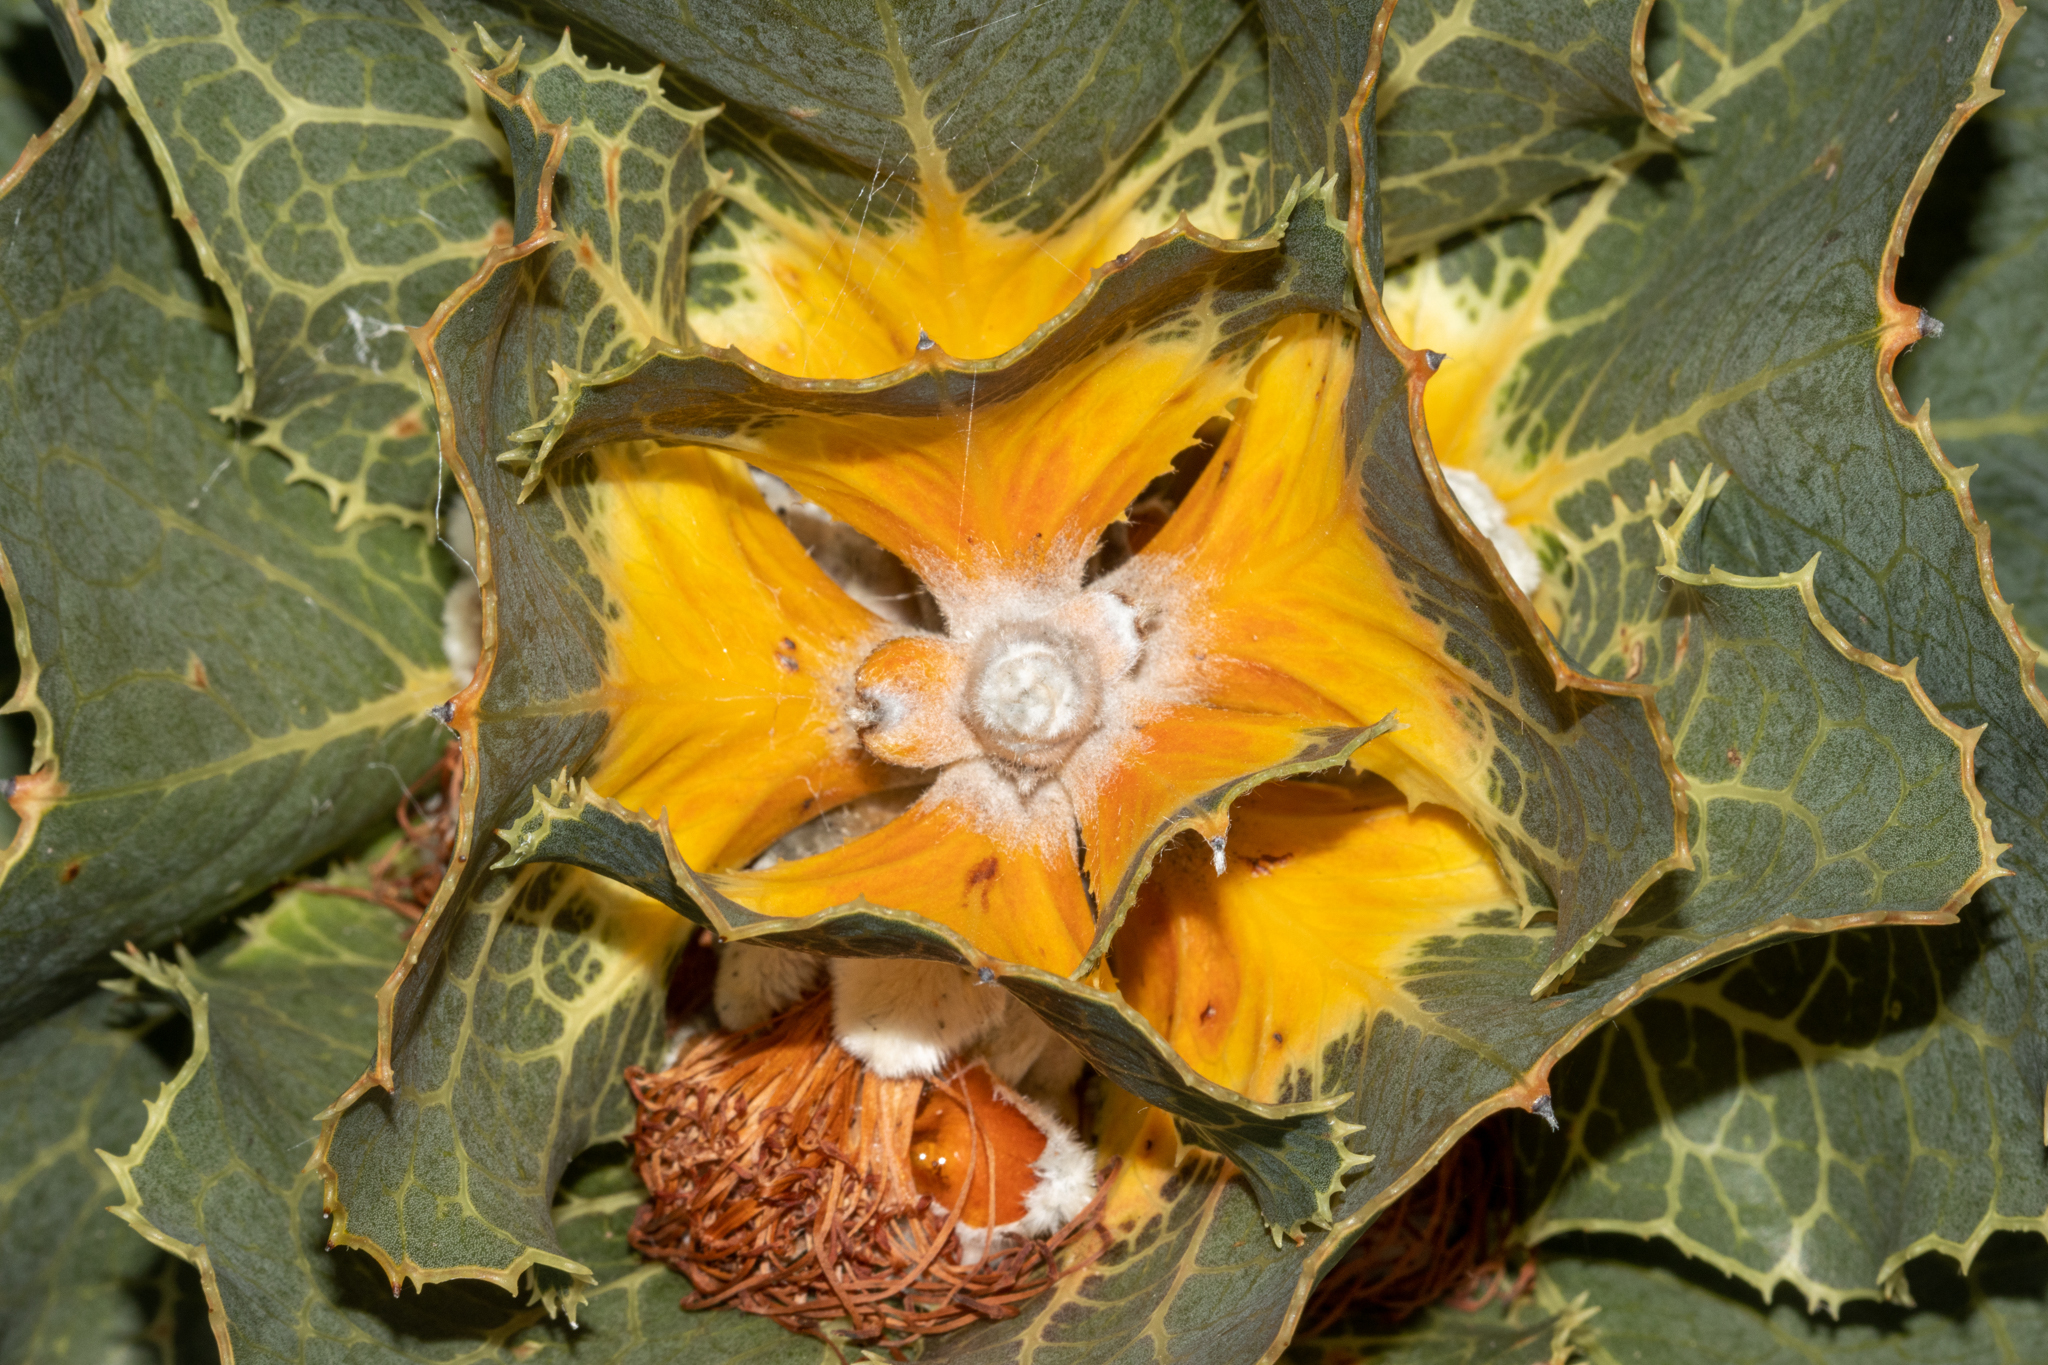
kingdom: Plantae
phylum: Tracheophyta
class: Magnoliopsida
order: Proteales
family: Proteaceae
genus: Hakea
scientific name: Hakea victoria
